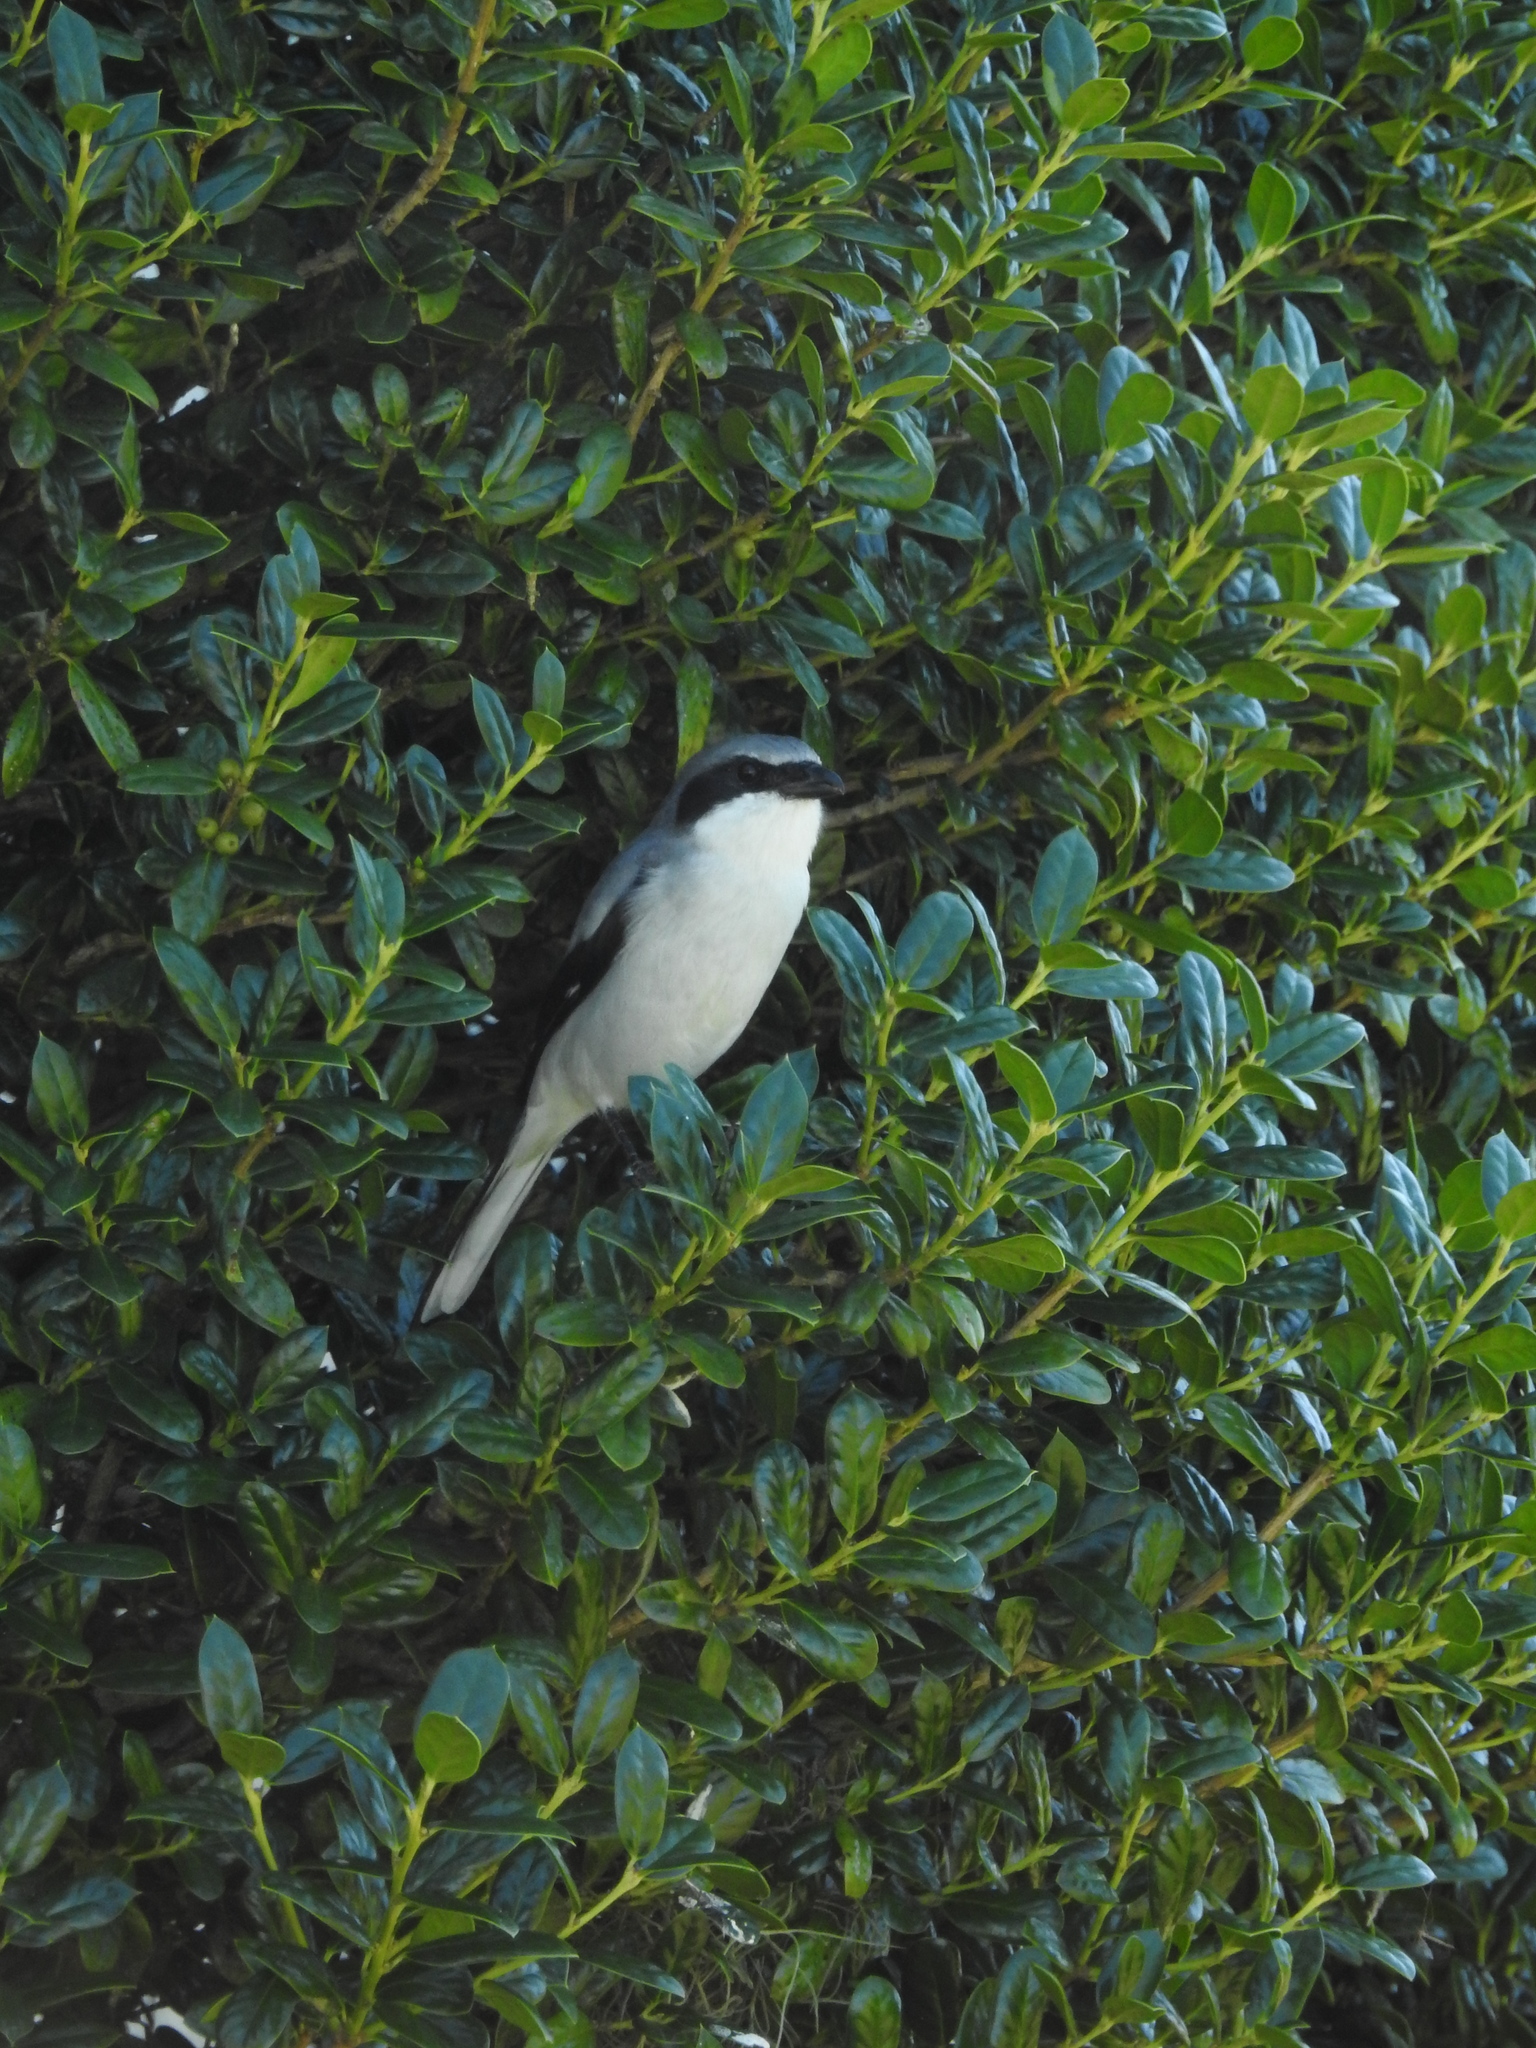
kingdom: Animalia
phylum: Chordata
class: Aves
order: Passeriformes
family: Laniidae
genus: Lanius
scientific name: Lanius ludovicianus
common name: Loggerhead shrike
